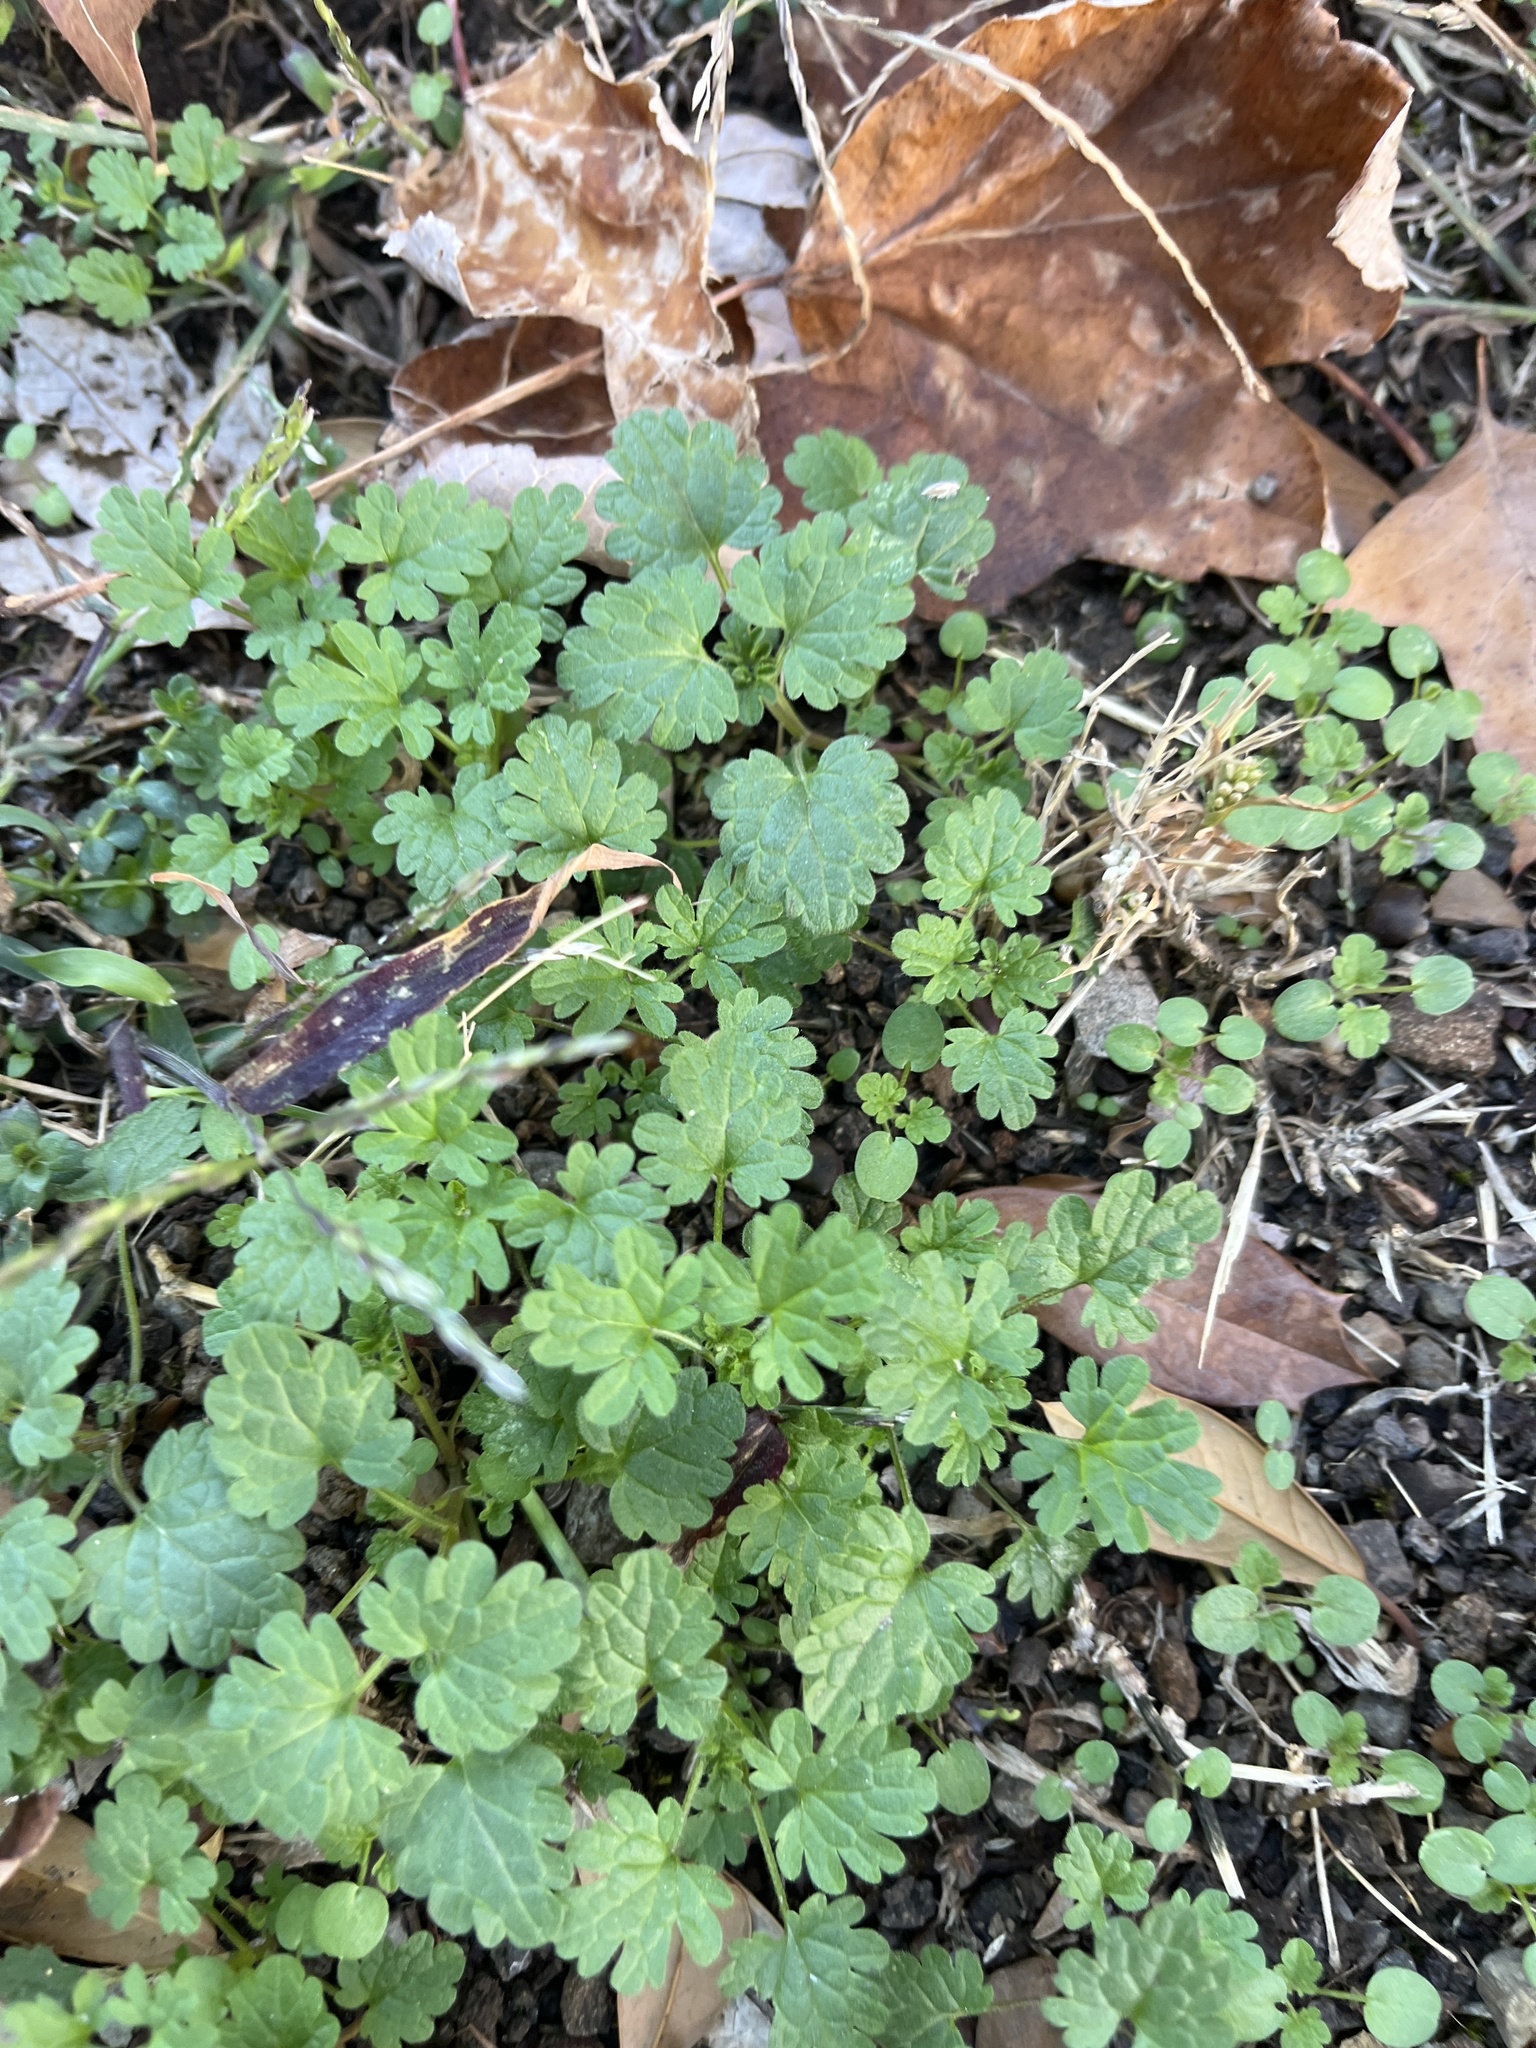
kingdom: Plantae
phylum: Tracheophyta
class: Magnoliopsida
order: Lamiales
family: Lamiaceae
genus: Lamium
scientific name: Lamium amplexicaule
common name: Henbit dead-nettle
